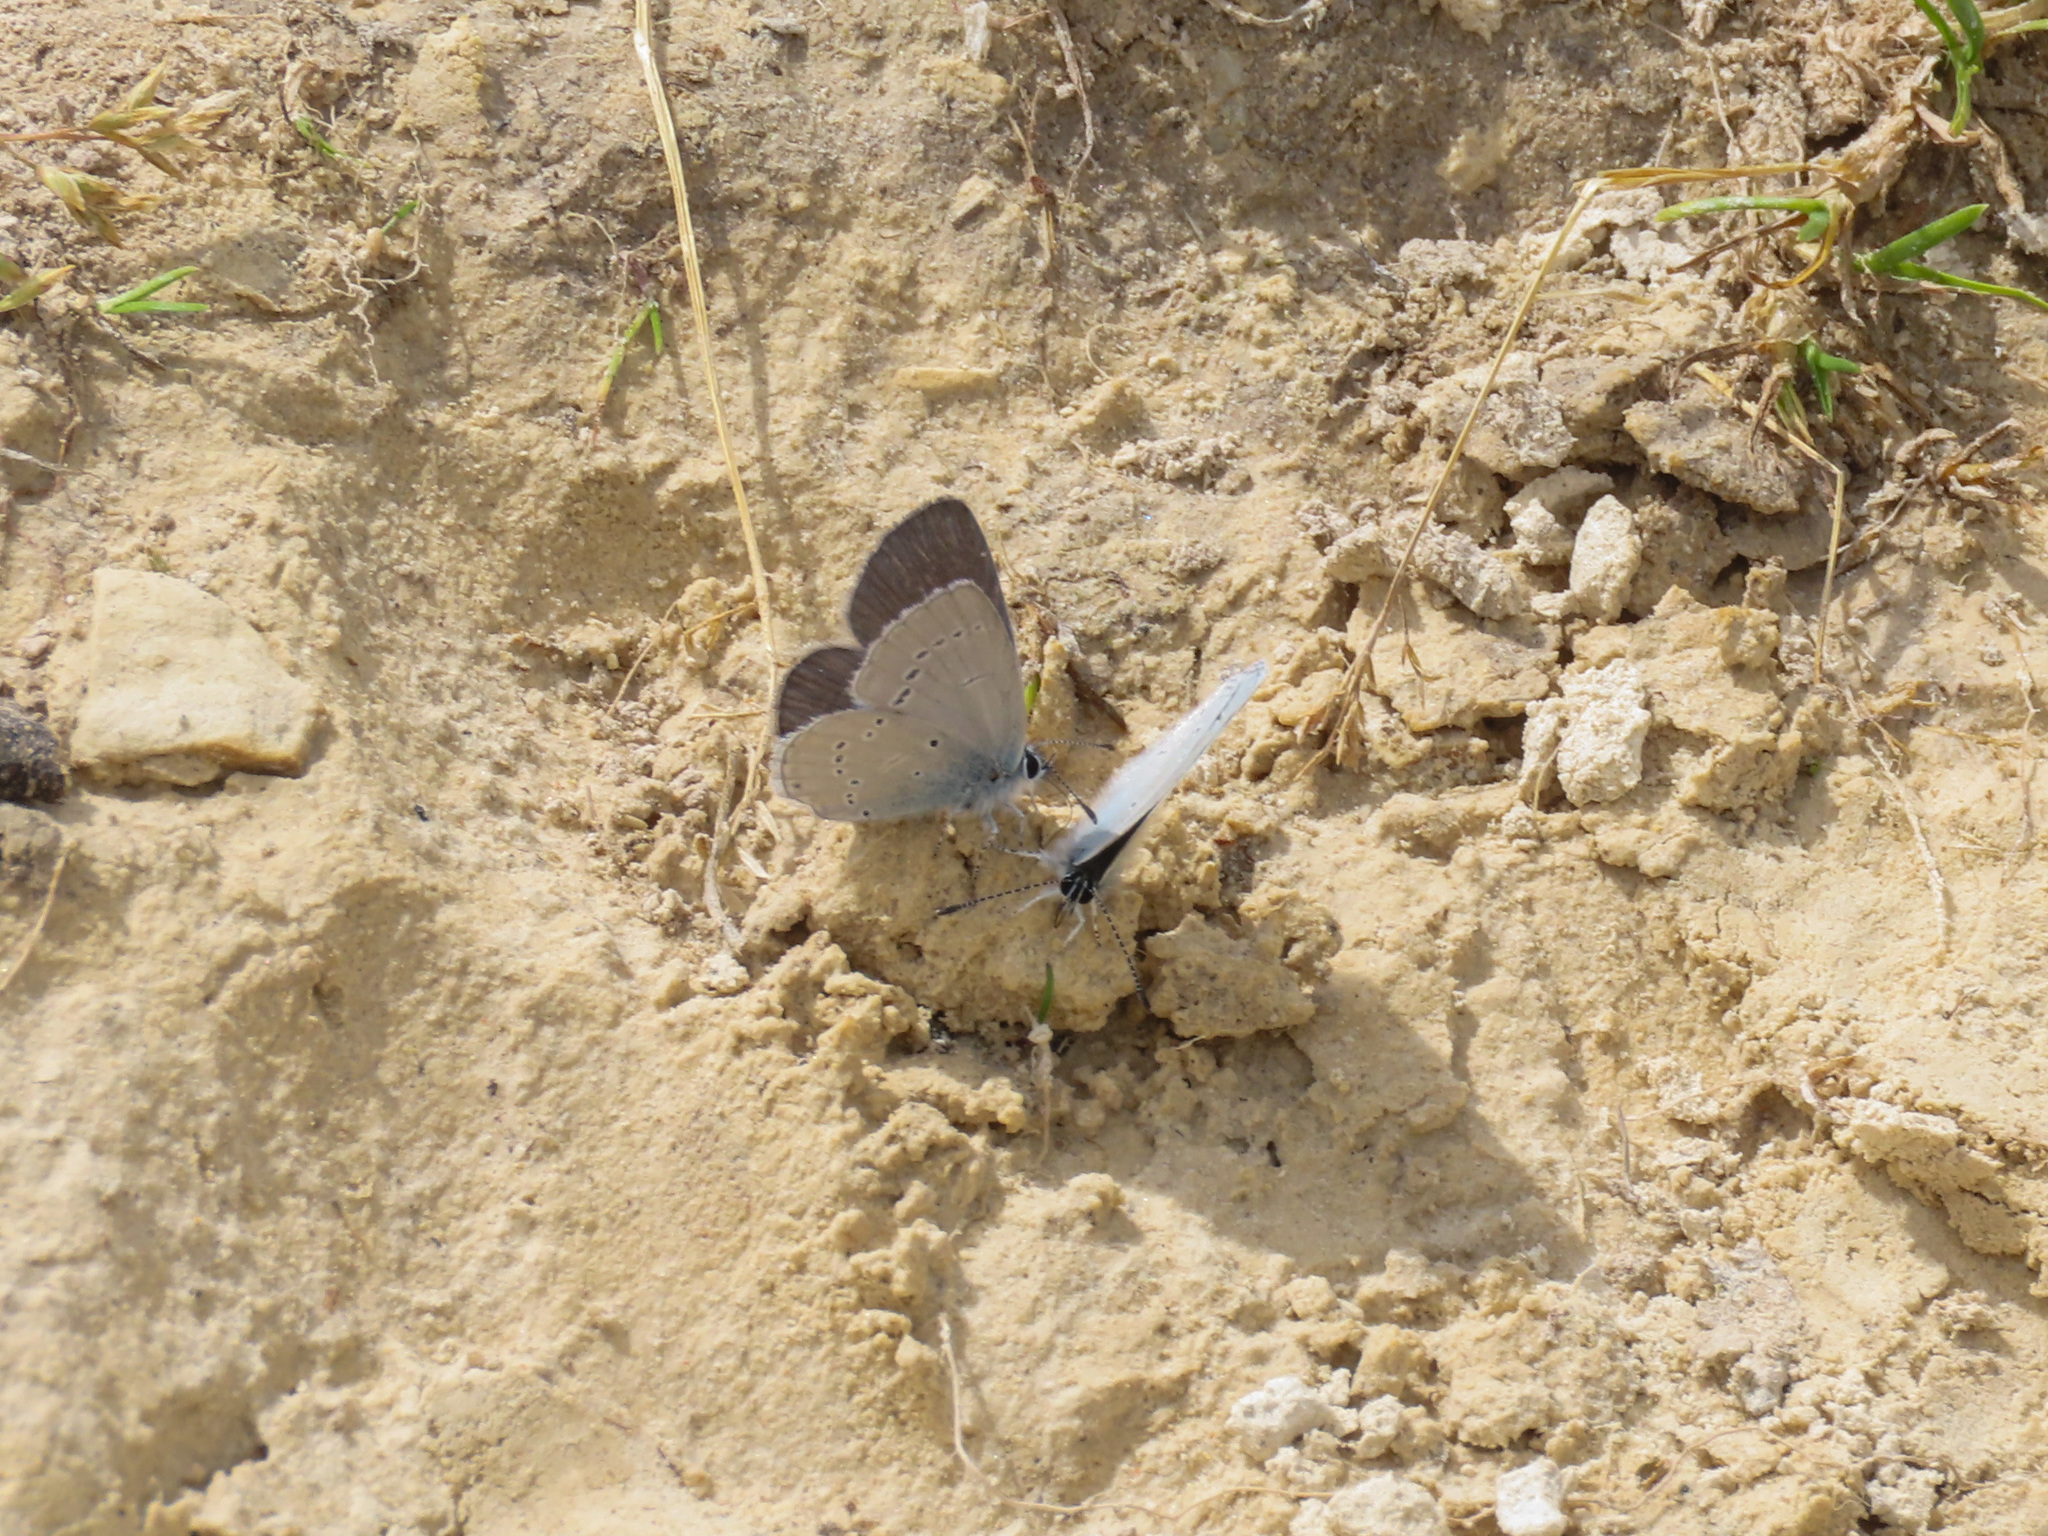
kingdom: Animalia
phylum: Arthropoda
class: Insecta
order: Lepidoptera
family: Lycaenidae
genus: Cupido
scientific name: Cupido minimus
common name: Small blue
